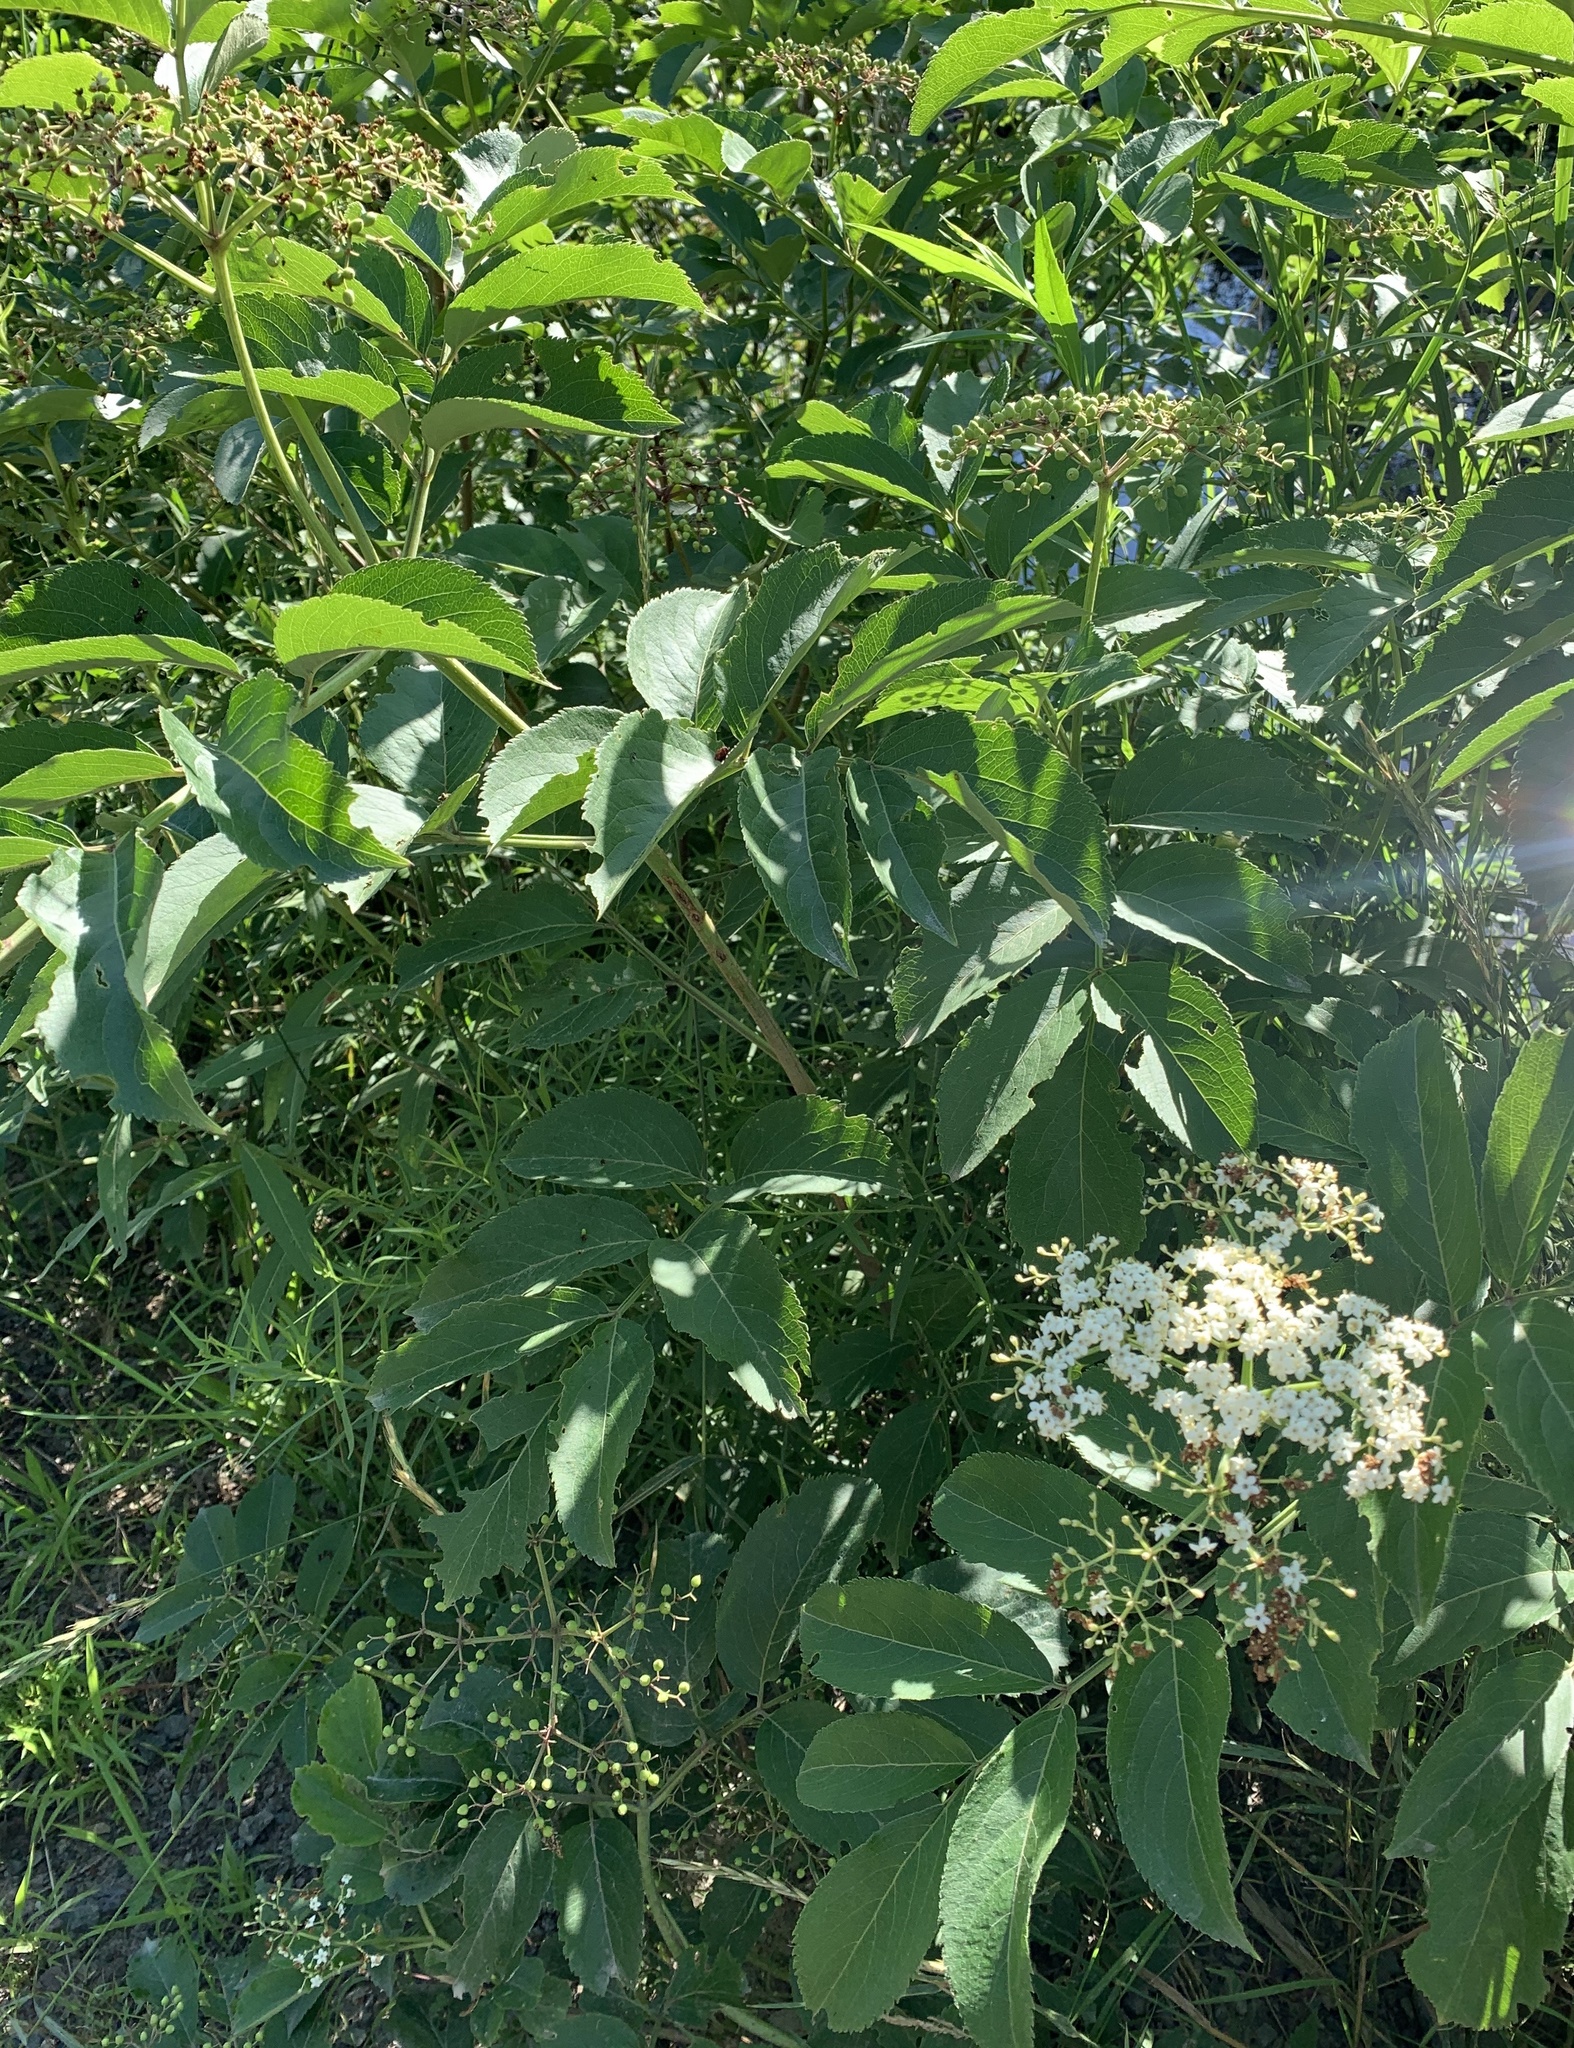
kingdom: Plantae
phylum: Tracheophyta
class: Magnoliopsida
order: Dipsacales
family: Viburnaceae
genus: Sambucus
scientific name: Sambucus canadensis
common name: American elder
